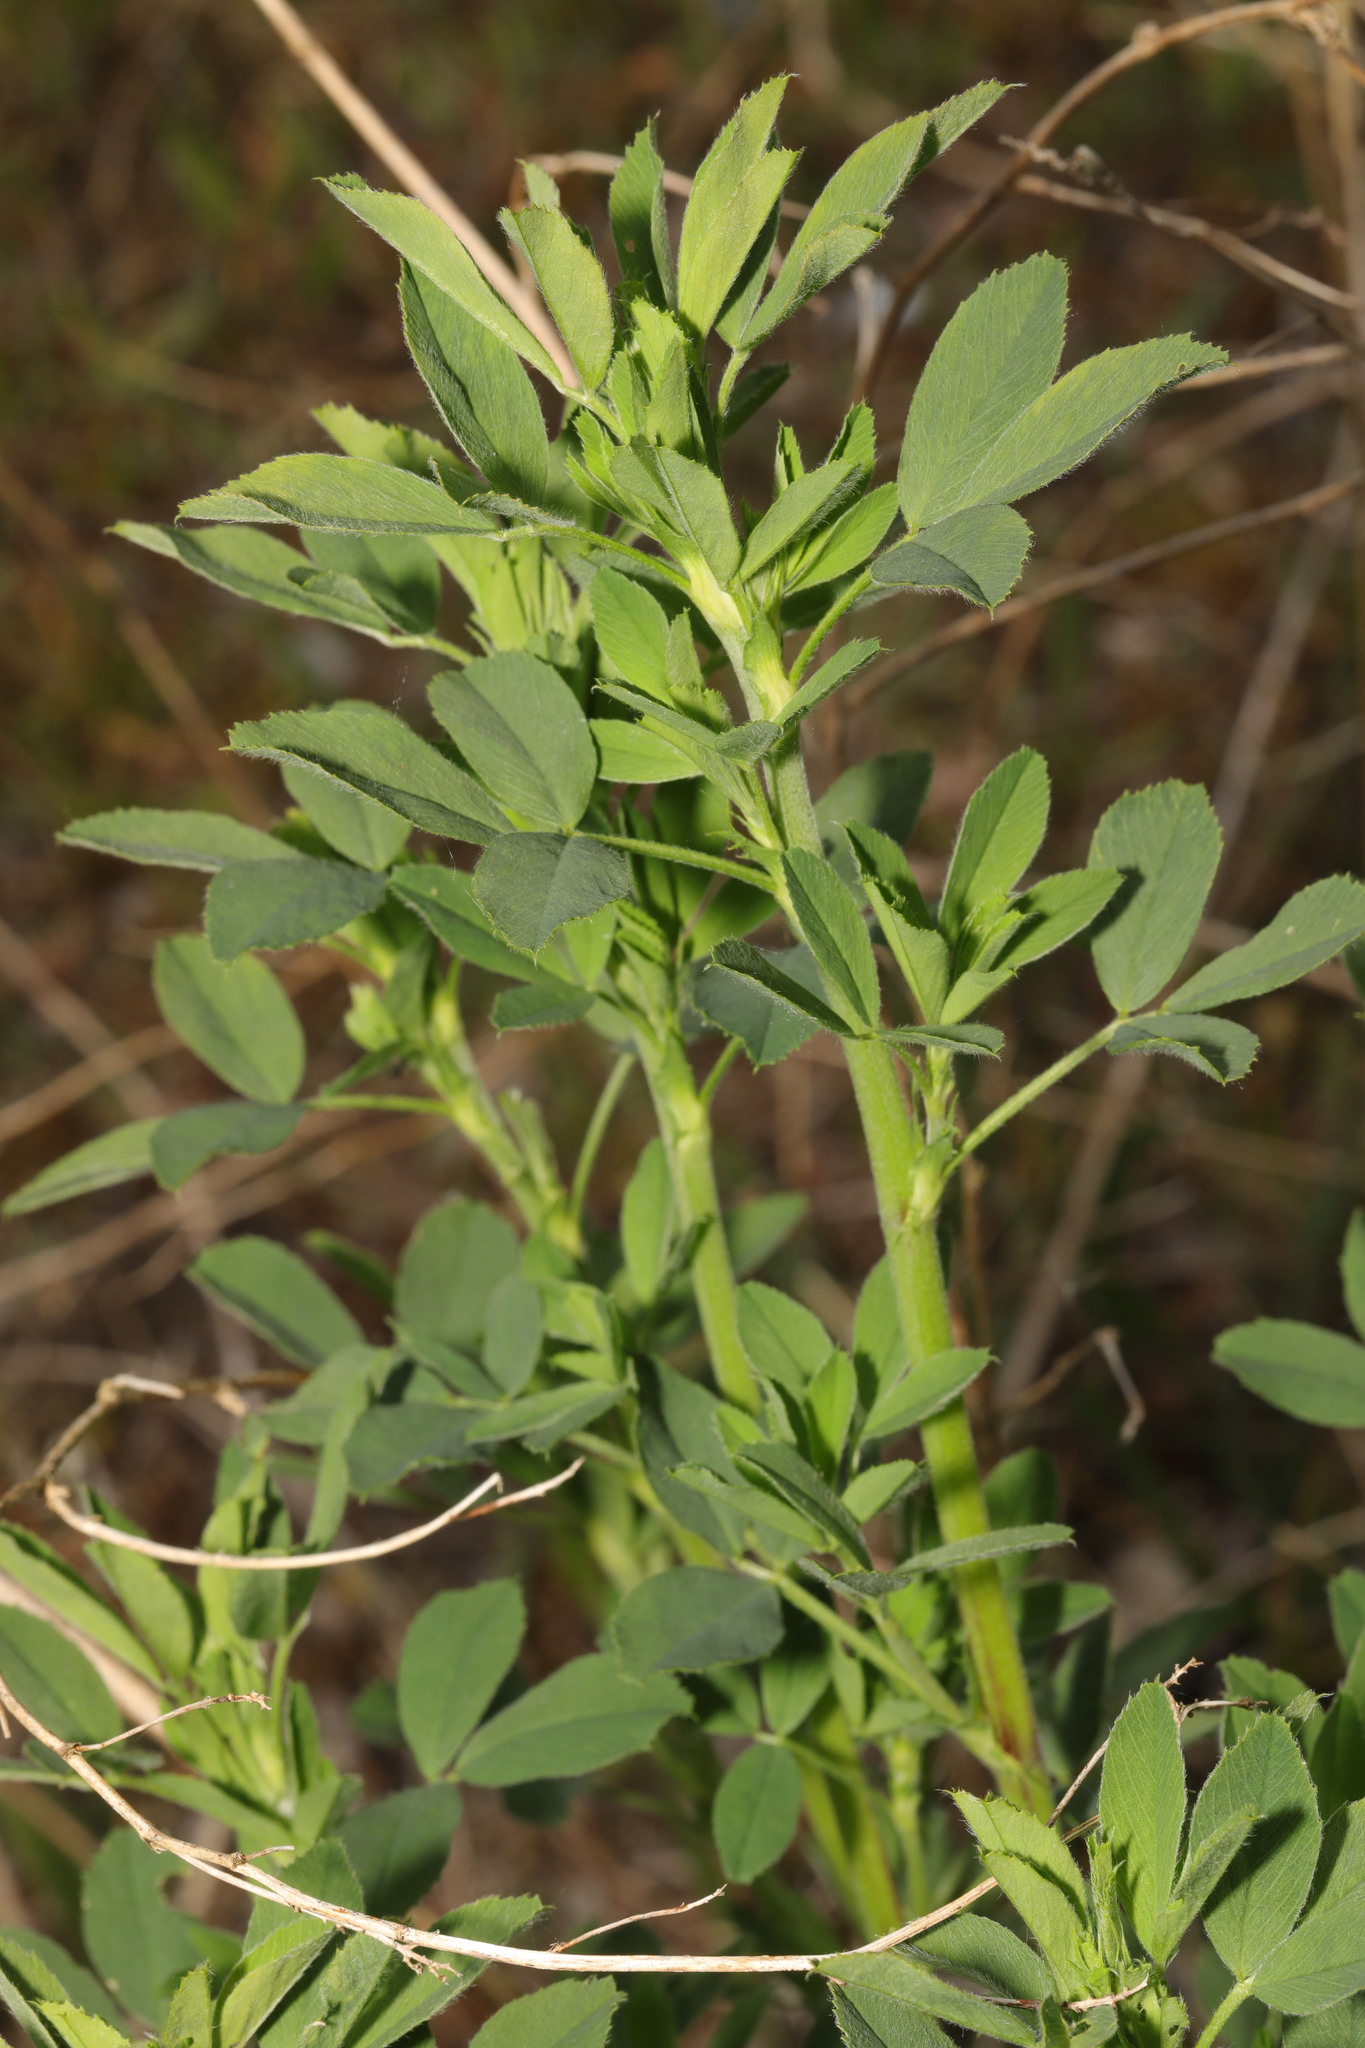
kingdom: Plantae
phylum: Tracheophyta
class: Magnoliopsida
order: Fabales
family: Fabaceae
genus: Medicago
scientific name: Medicago sativa
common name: Alfalfa
